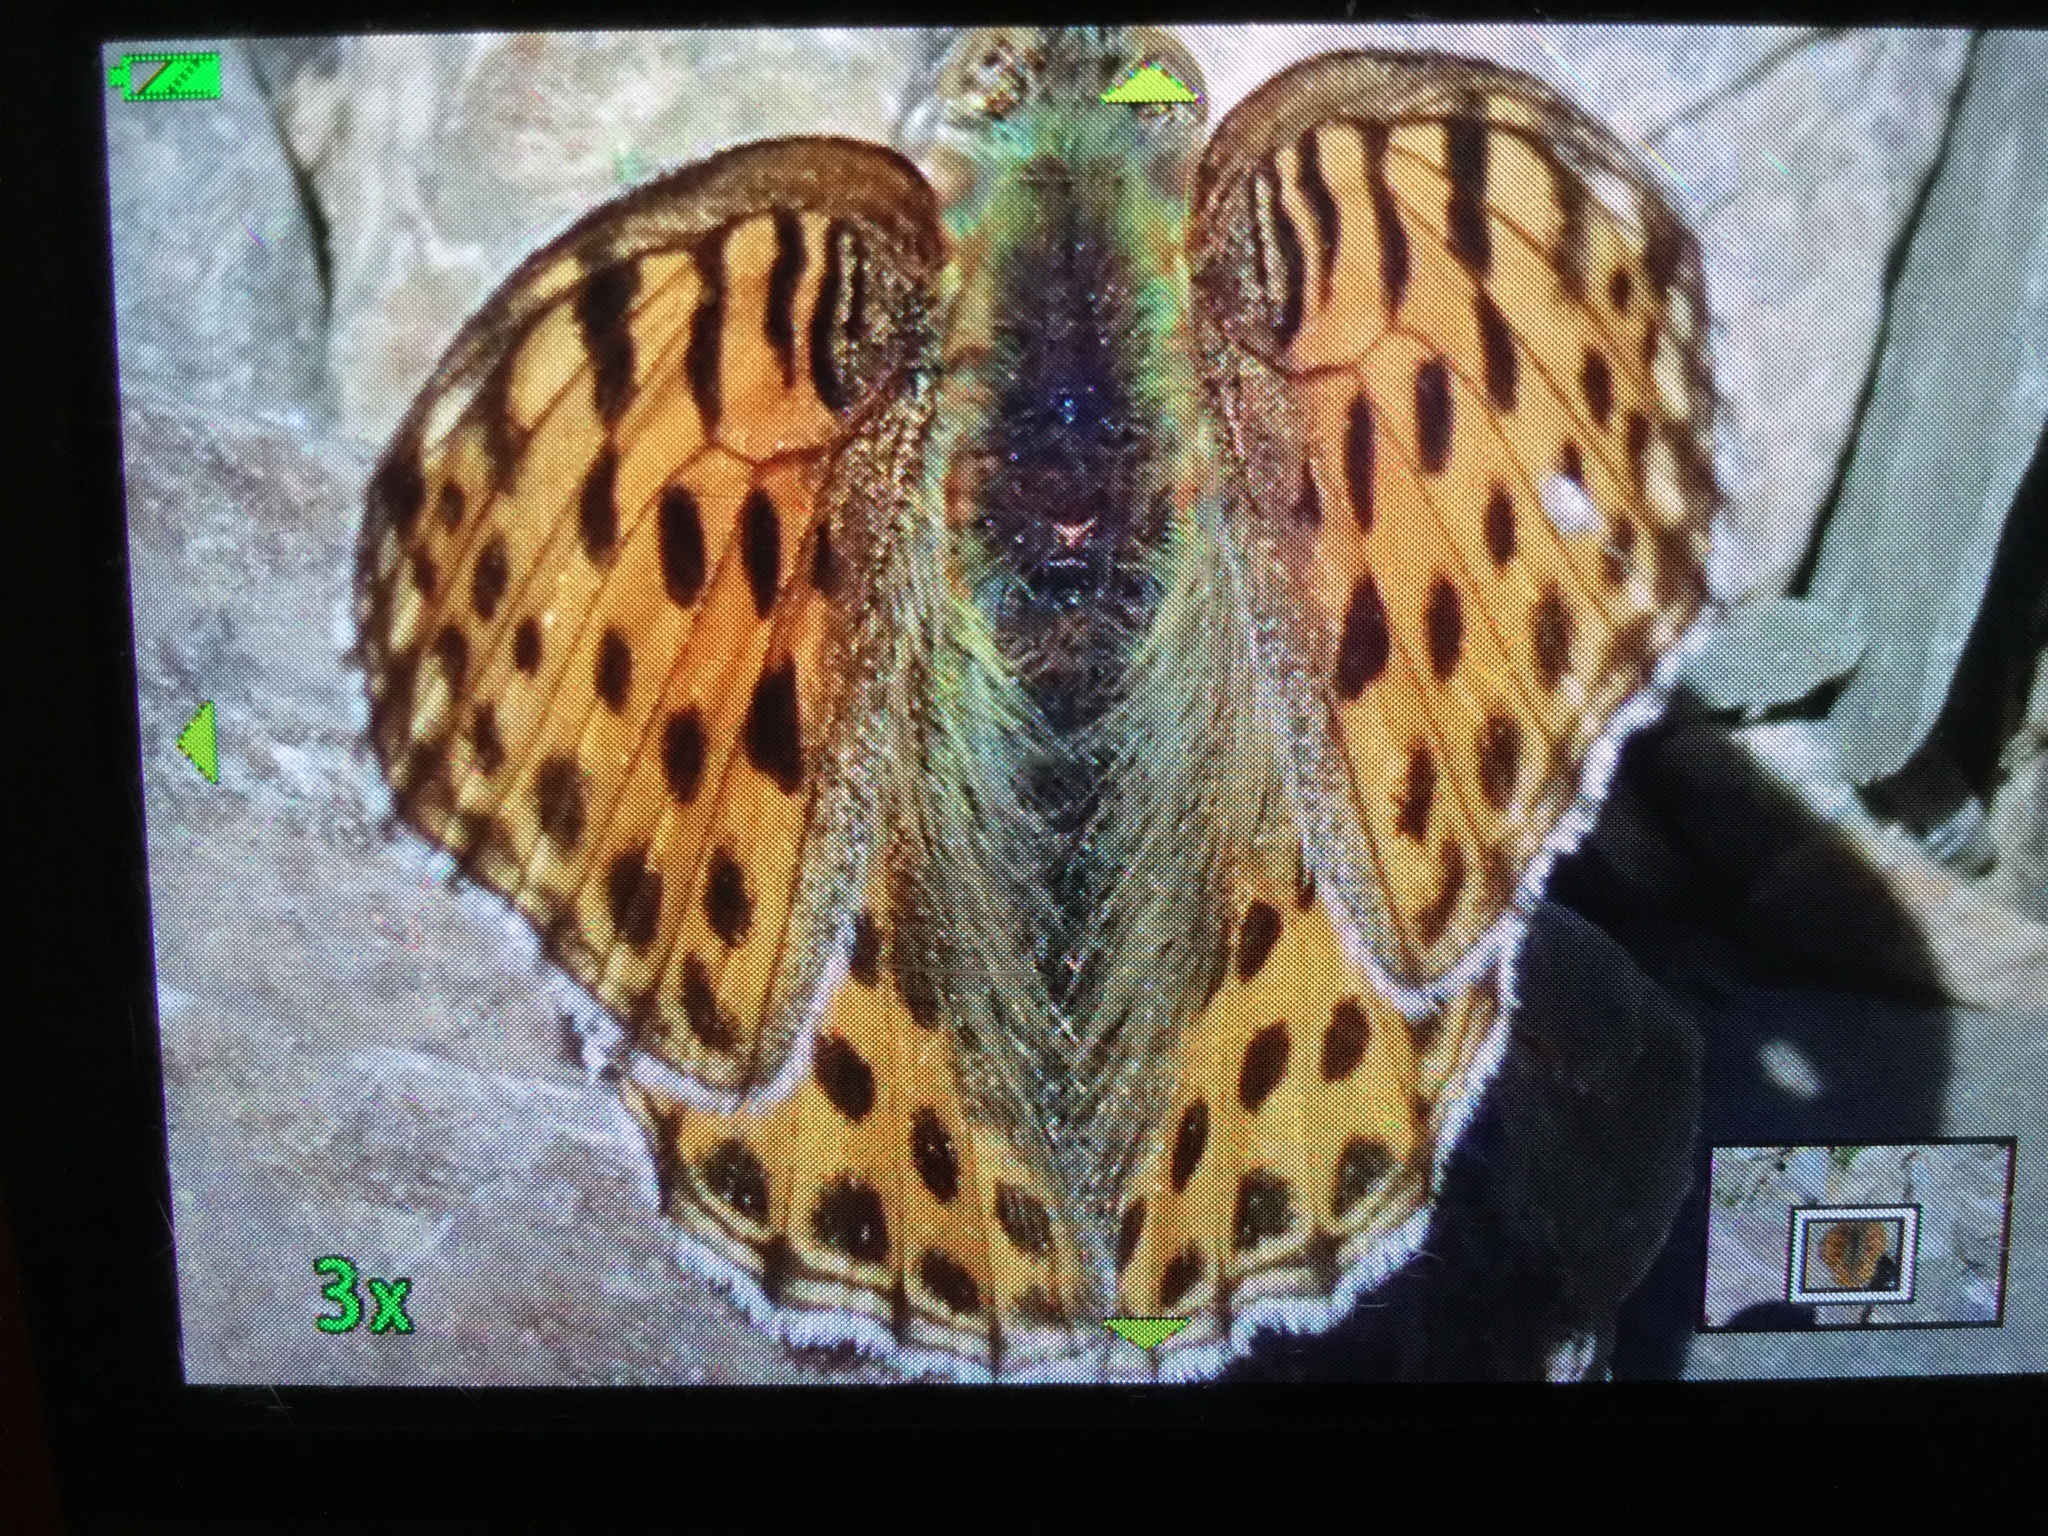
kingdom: Animalia
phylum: Arthropoda
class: Insecta
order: Lepidoptera
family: Nymphalidae
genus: Issoria
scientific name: Issoria lathonia
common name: Queen of spain fritillary
